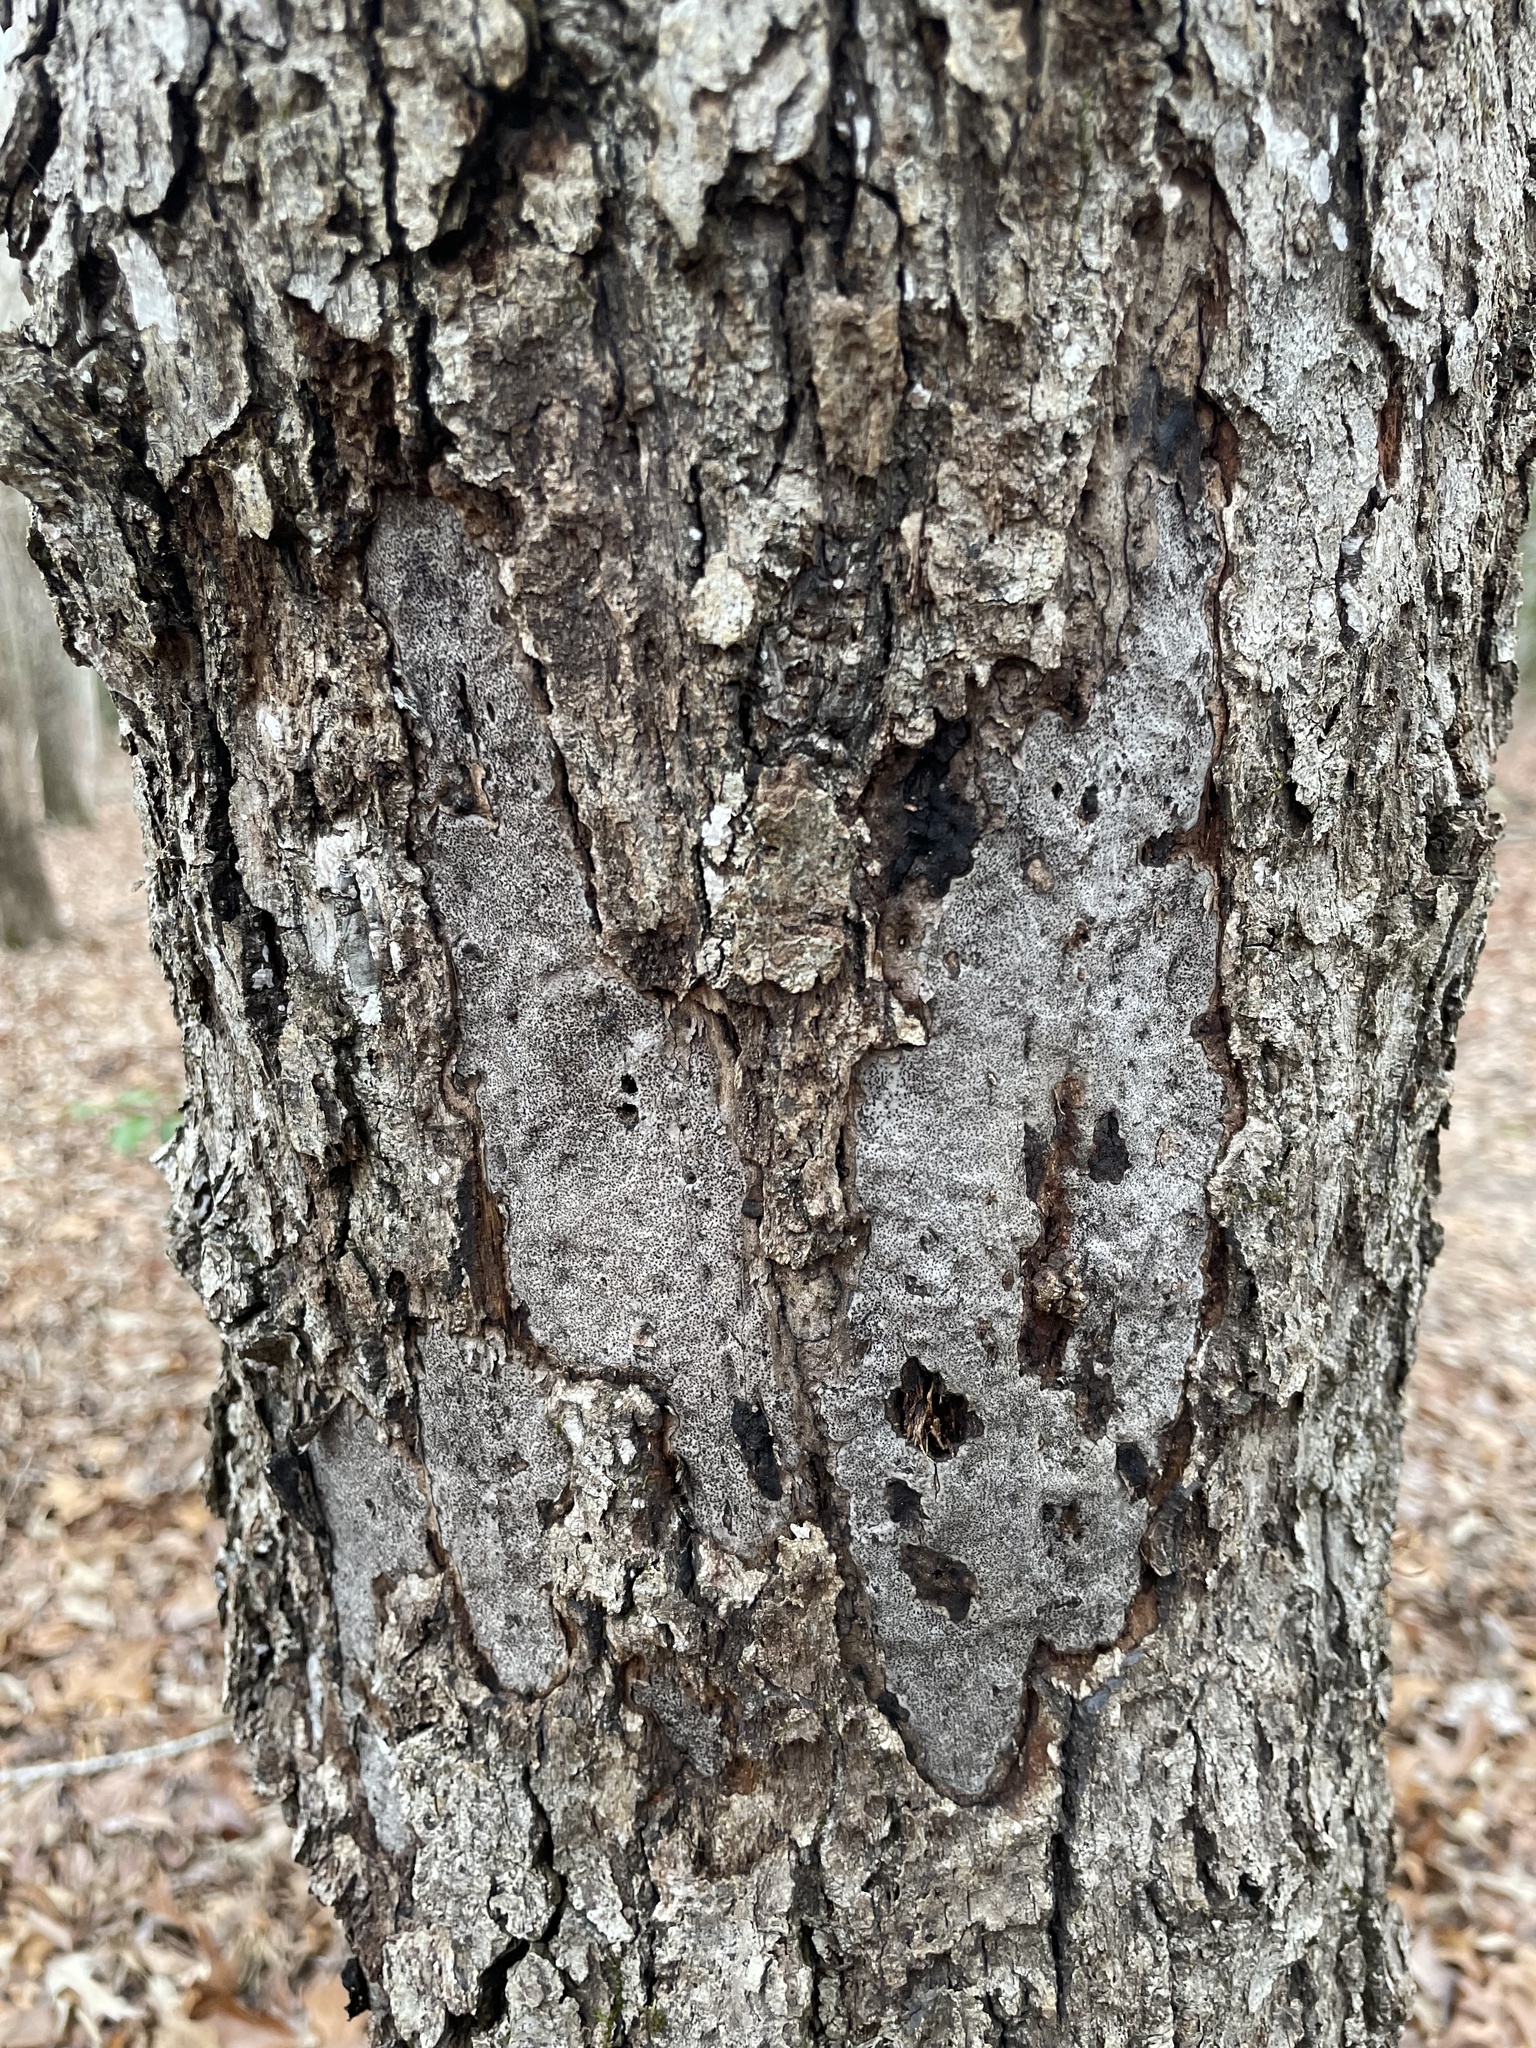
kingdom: Fungi
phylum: Ascomycota
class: Sordariomycetes
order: Xylariales
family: Graphostromataceae
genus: Biscogniauxia
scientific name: Biscogniauxia atropunctata
